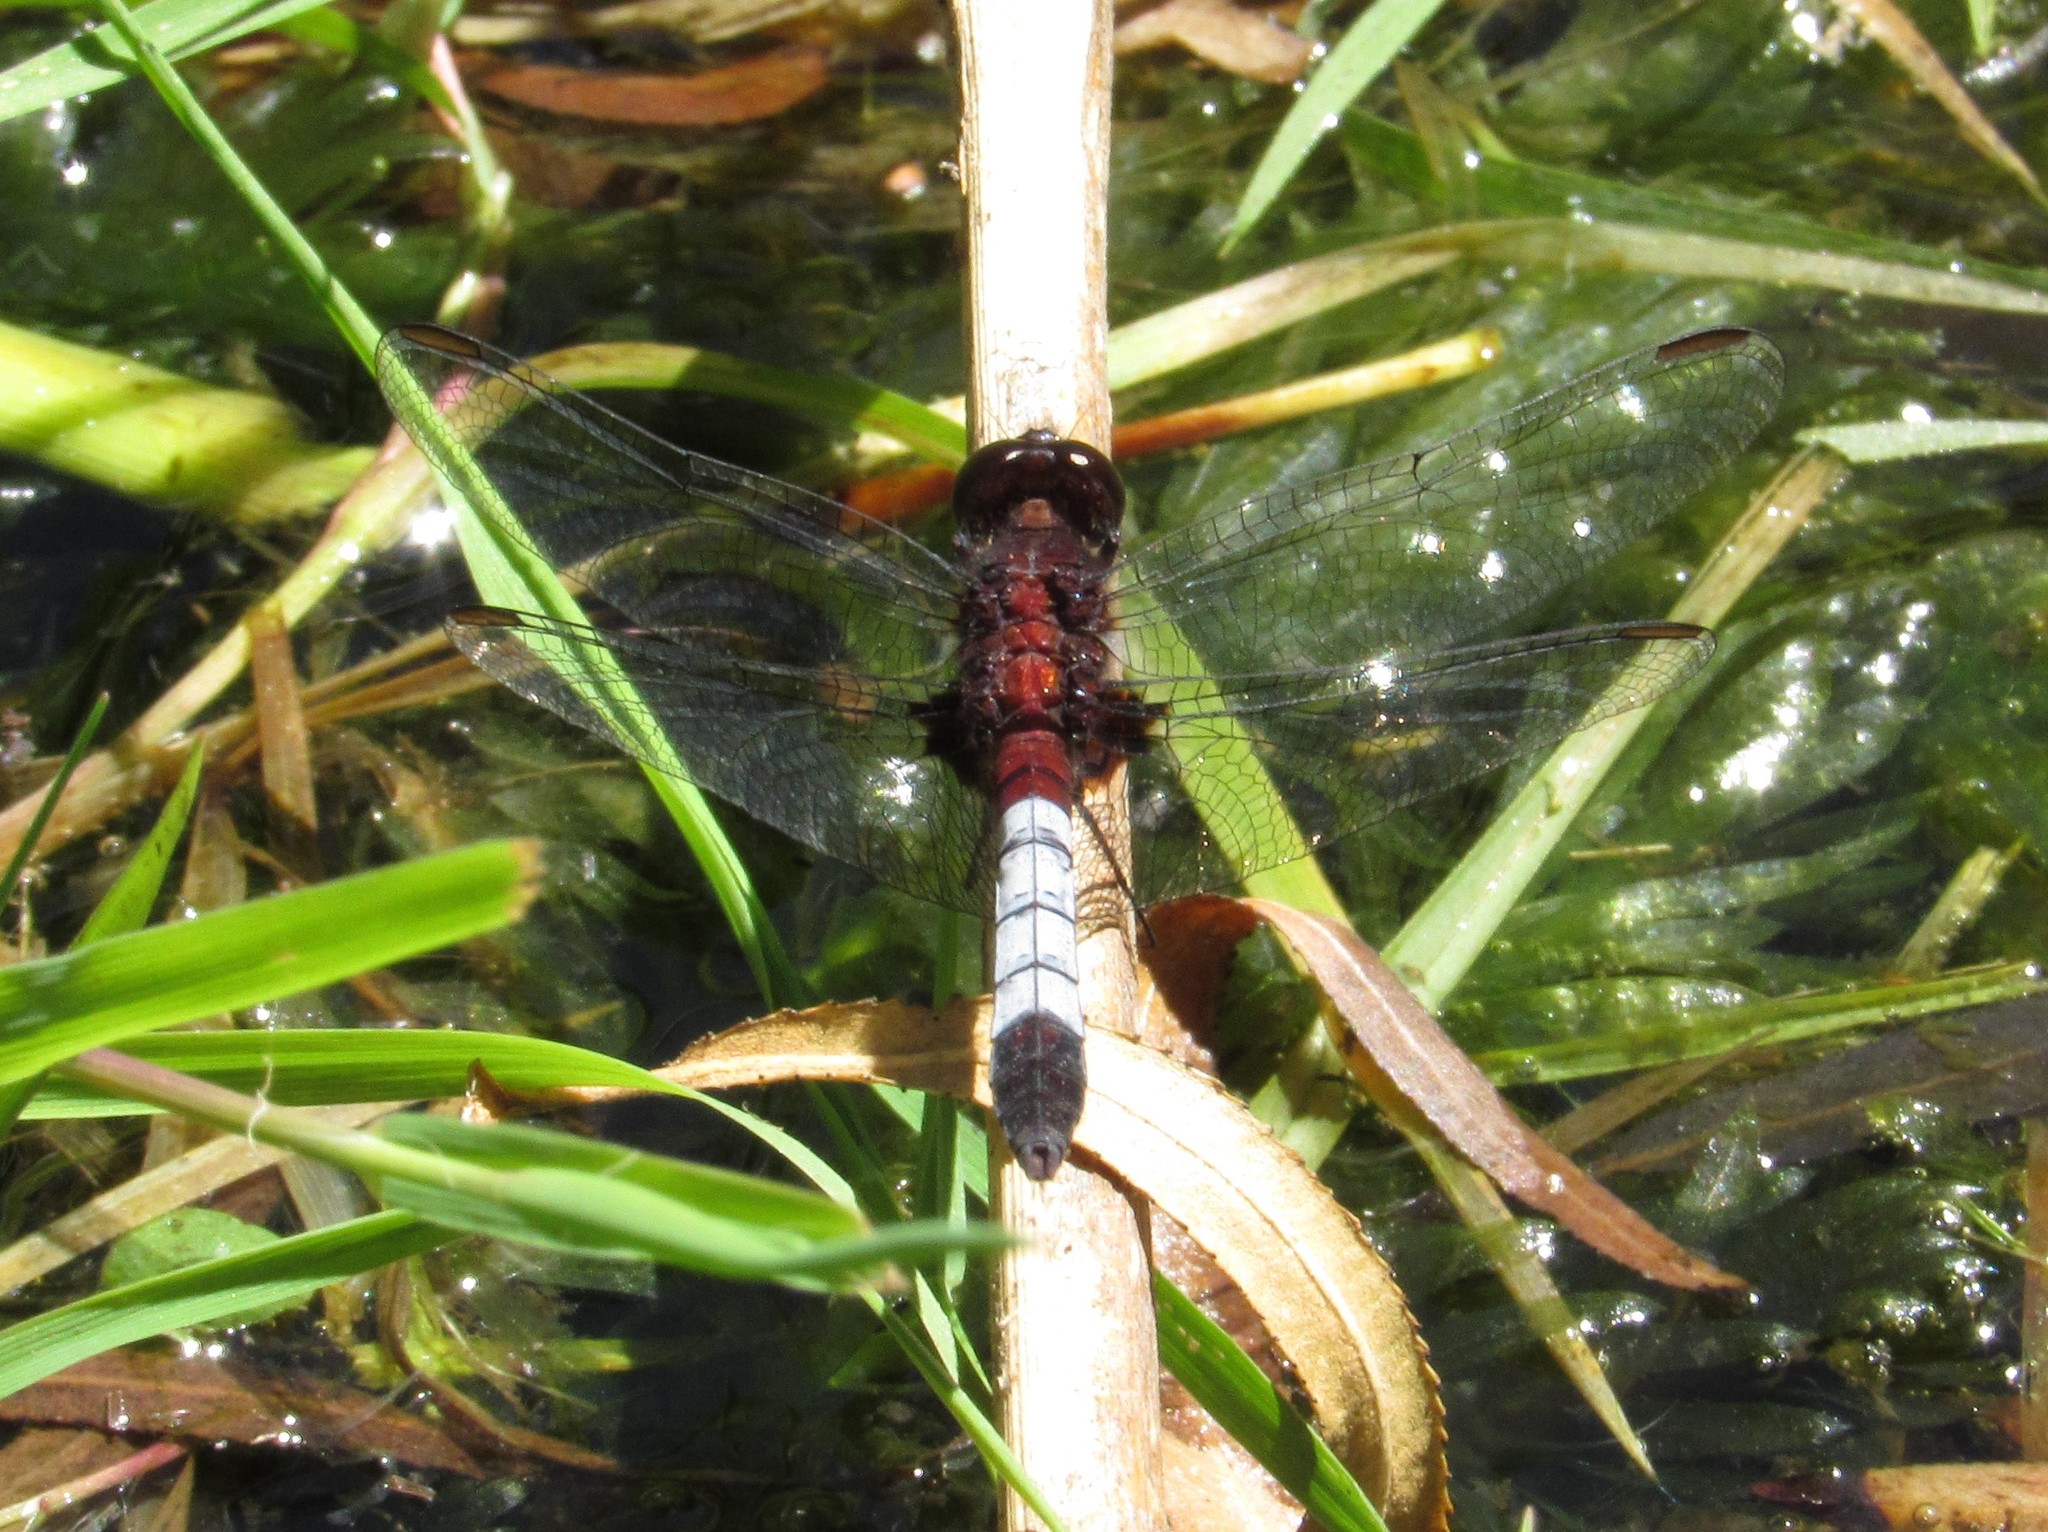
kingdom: Animalia
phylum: Arthropoda
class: Insecta
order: Odonata
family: Libellulidae
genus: Erythrodiplax
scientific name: Erythrodiplax abjecta
